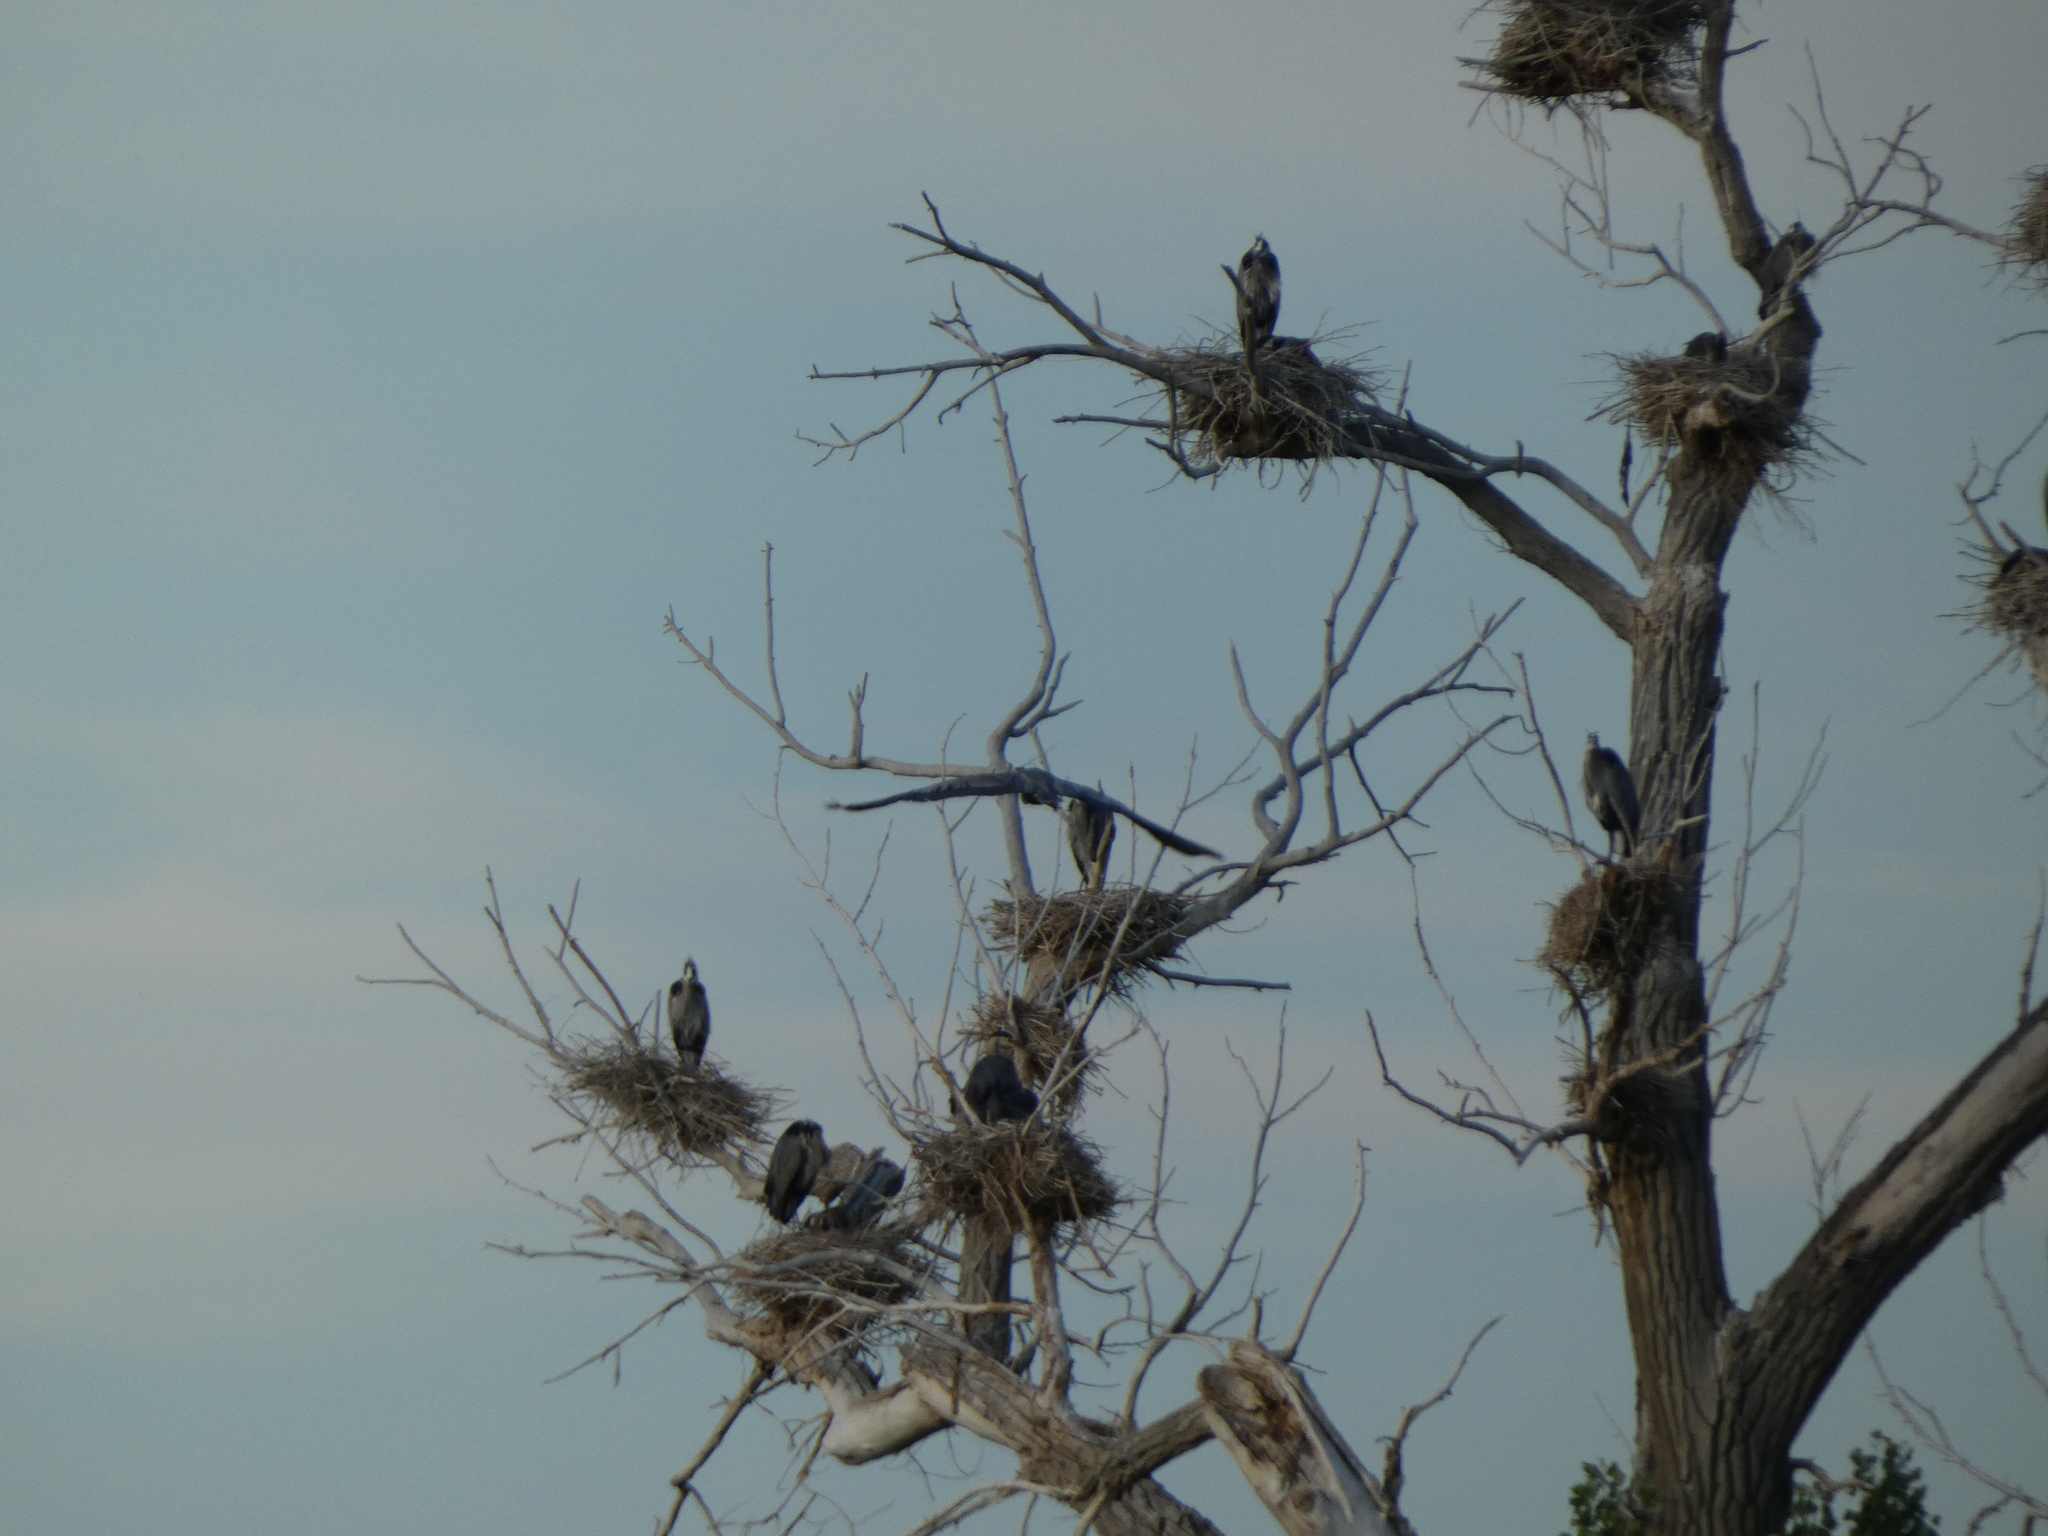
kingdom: Animalia
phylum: Chordata
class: Aves
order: Pelecaniformes
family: Ardeidae
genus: Ardea
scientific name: Ardea herodias
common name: Great blue heron
